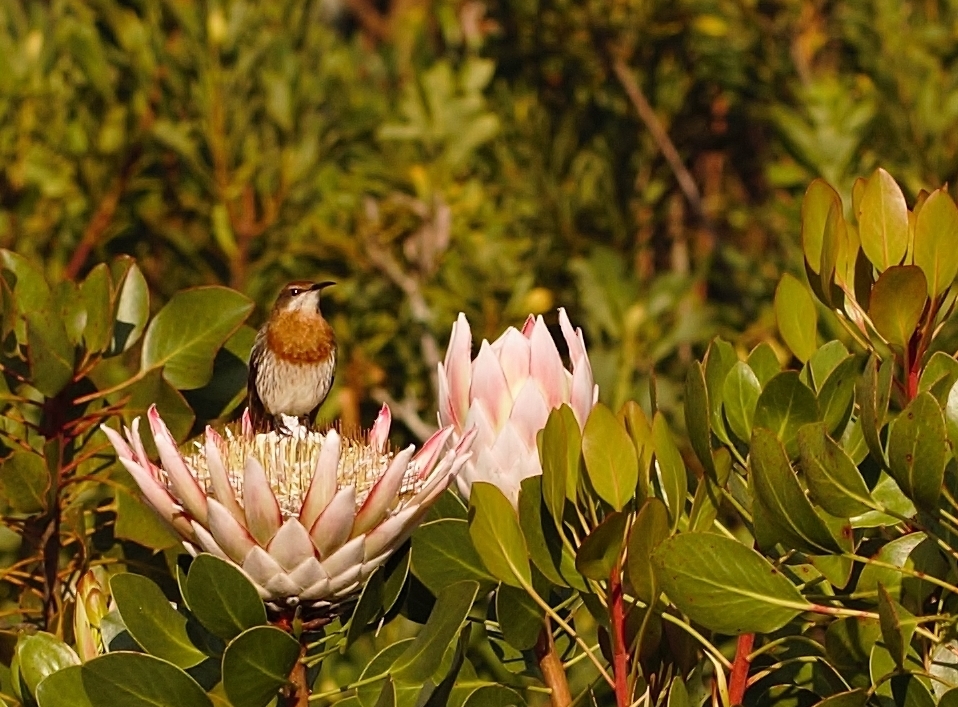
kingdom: Animalia
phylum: Chordata
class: Aves
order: Passeriformes
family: Promeropidae
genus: Promerops
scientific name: Promerops gurneyi
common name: Gurney's sugarbird
